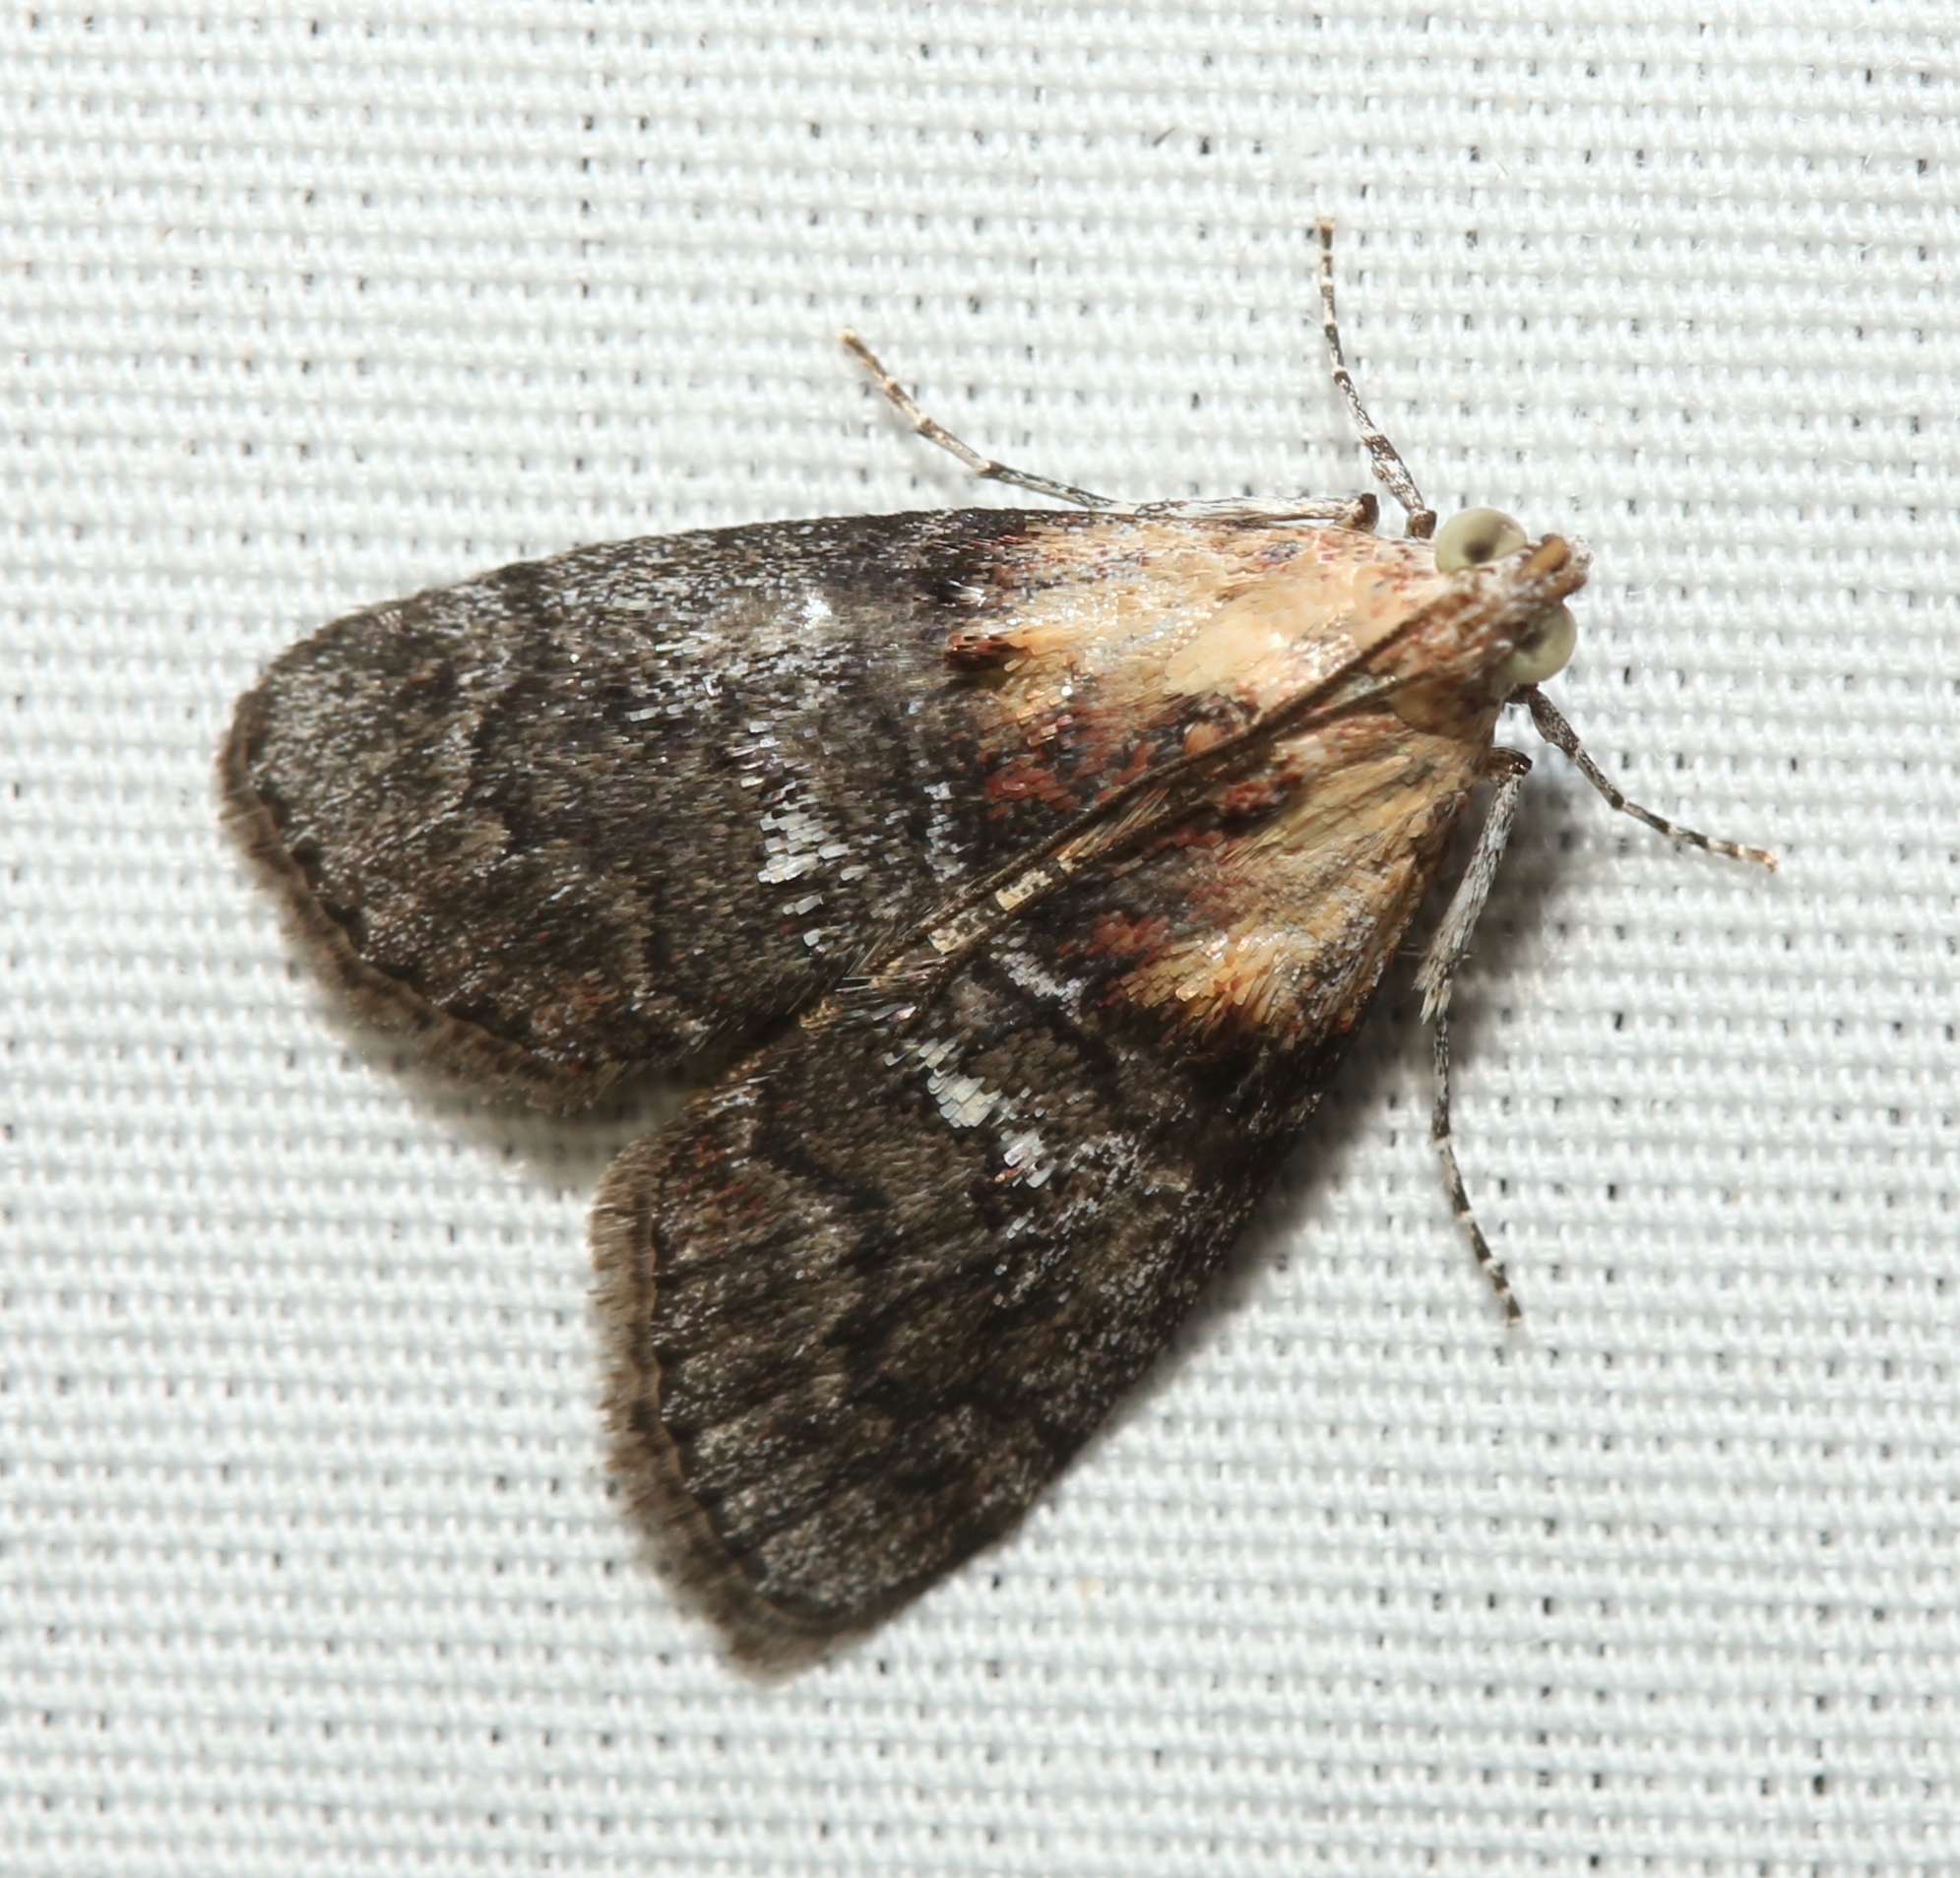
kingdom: Animalia
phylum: Arthropoda
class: Insecta
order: Lepidoptera
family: Pyralidae
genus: Pococera
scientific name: Pococera expandens
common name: Striped oak webworm moth
